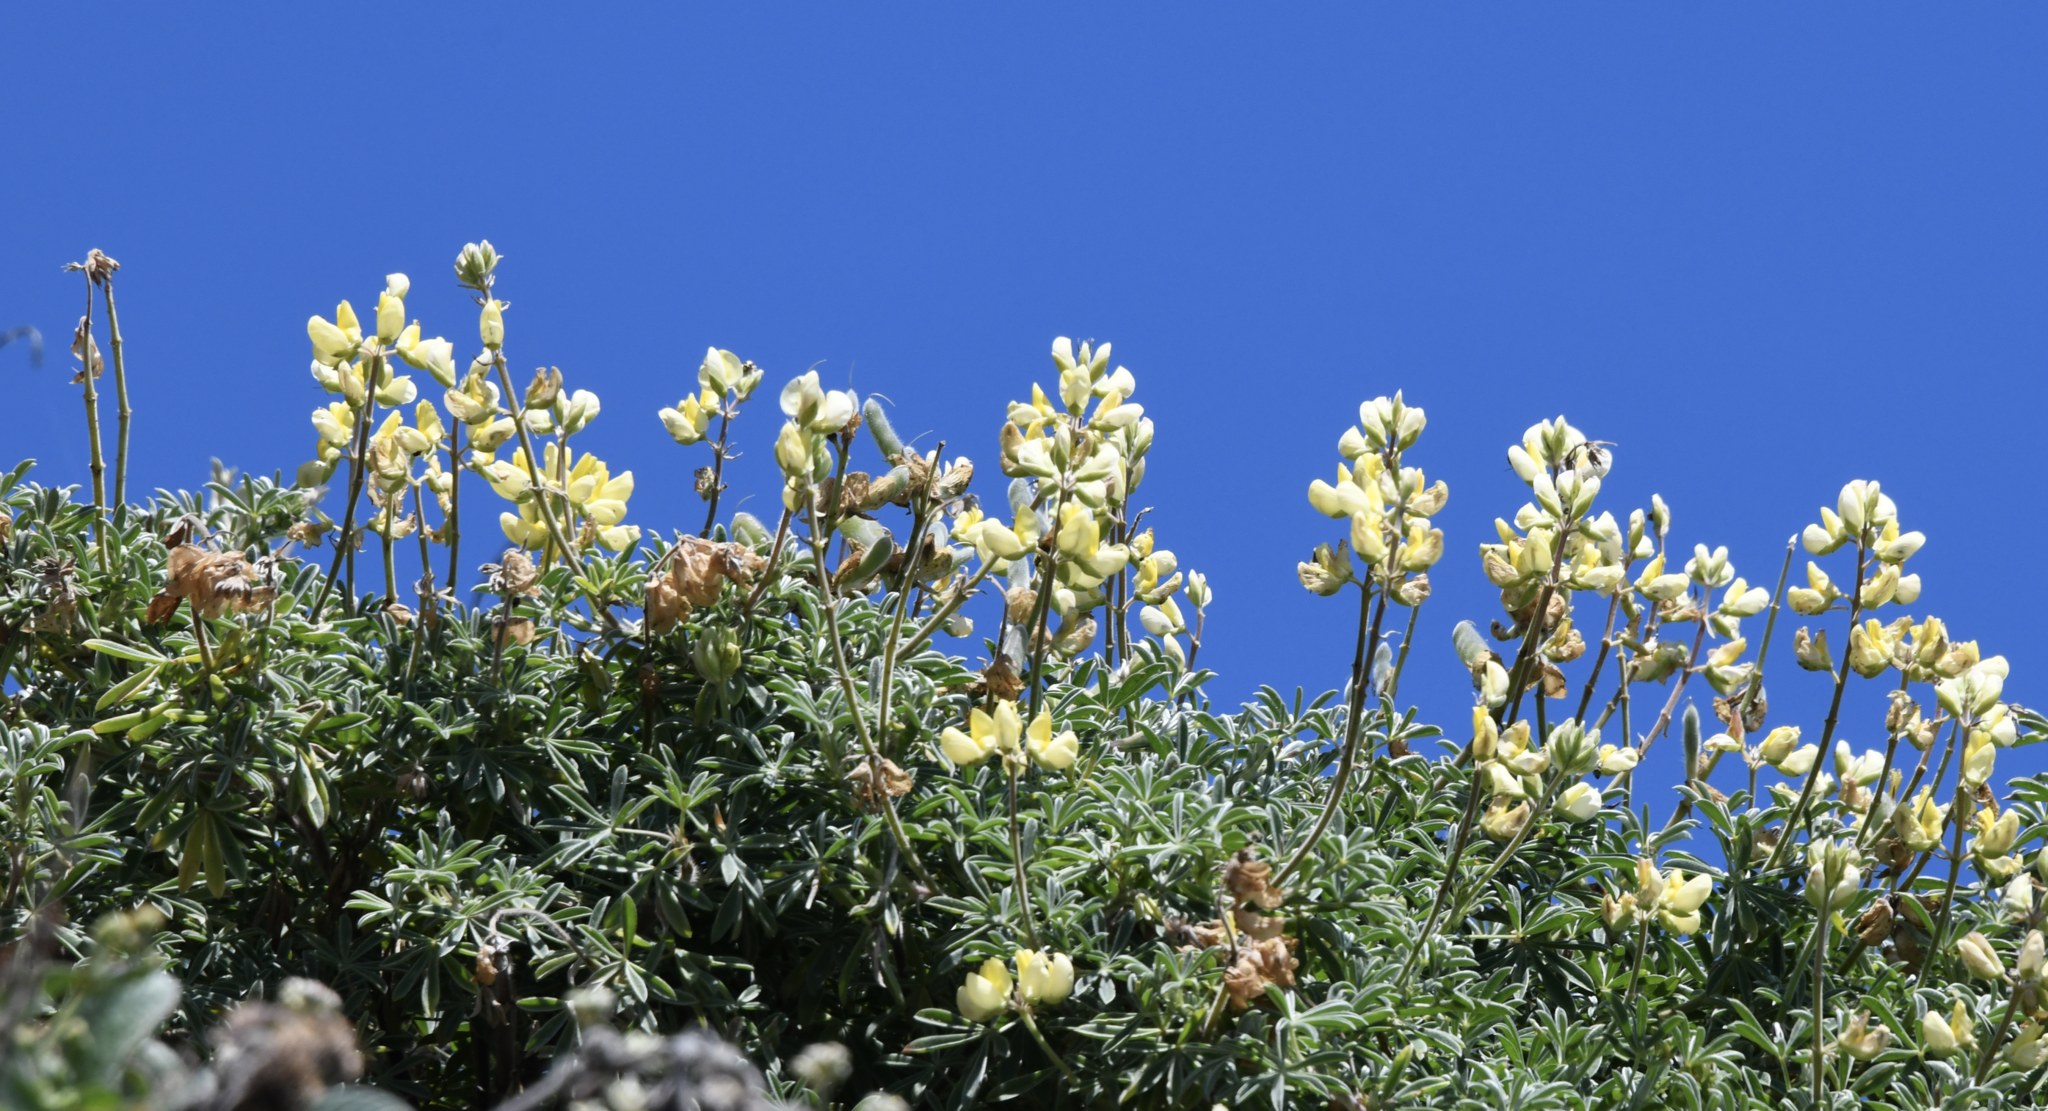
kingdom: Plantae
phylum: Tracheophyta
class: Magnoliopsida
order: Fabales
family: Fabaceae
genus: Lupinus
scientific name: Lupinus arboreus
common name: Yellow bush lupine
